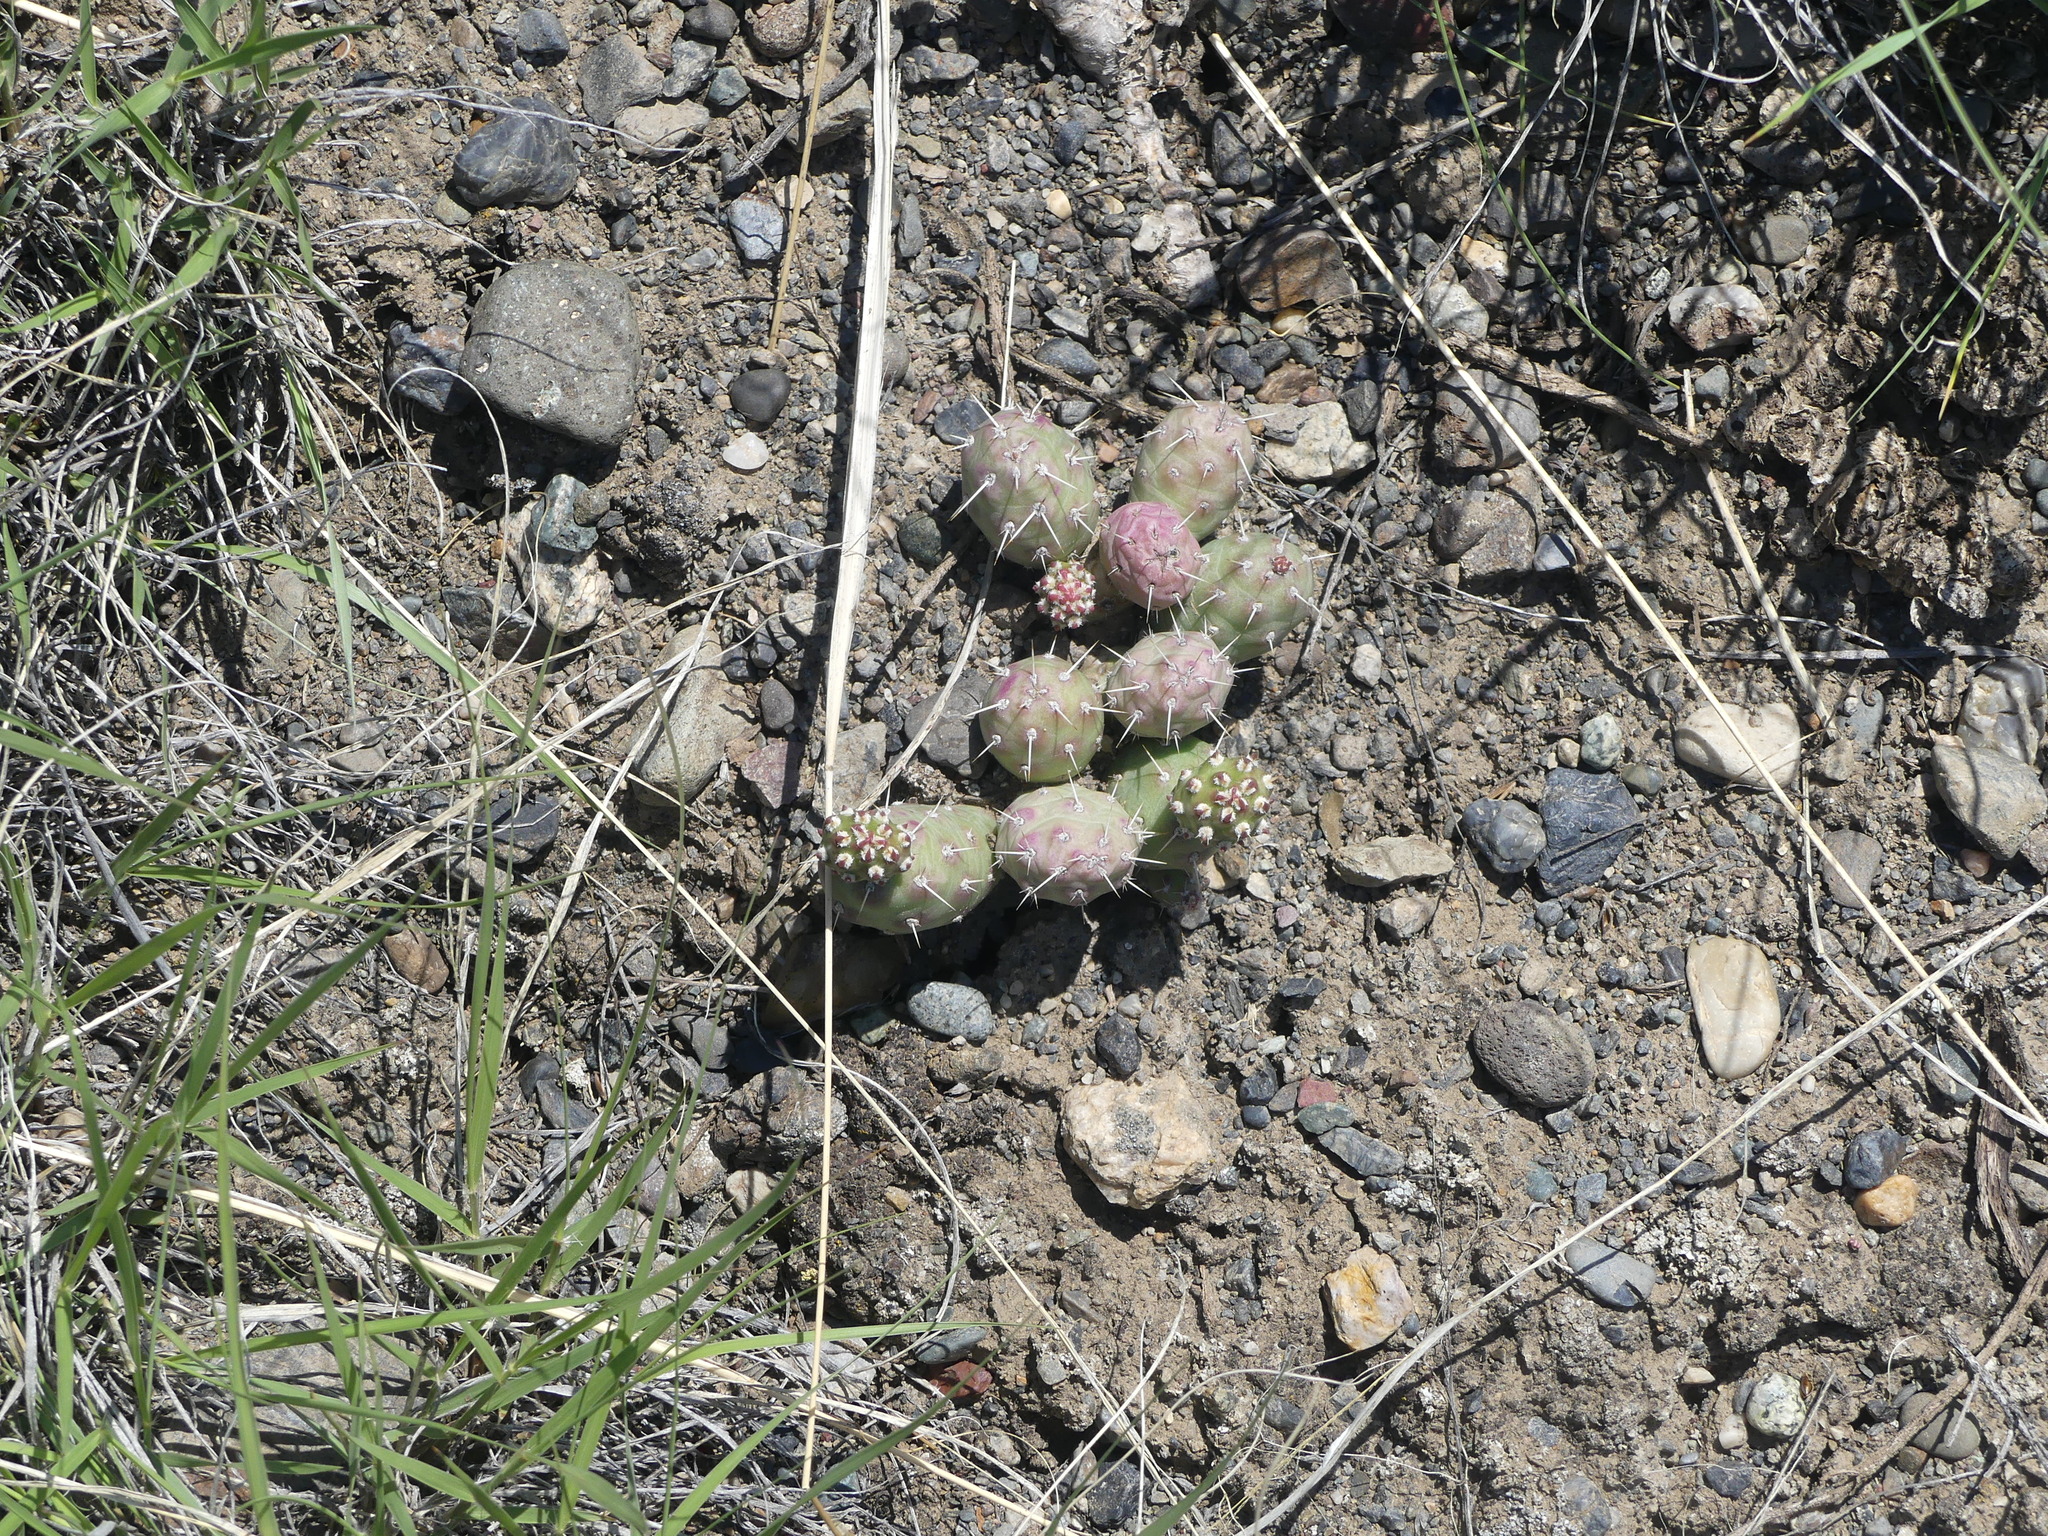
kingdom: Plantae
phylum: Tracheophyta
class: Magnoliopsida
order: Caryophyllales
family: Cactaceae
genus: Opuntia
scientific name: Opuntia fragilis
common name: Brittle cactus
